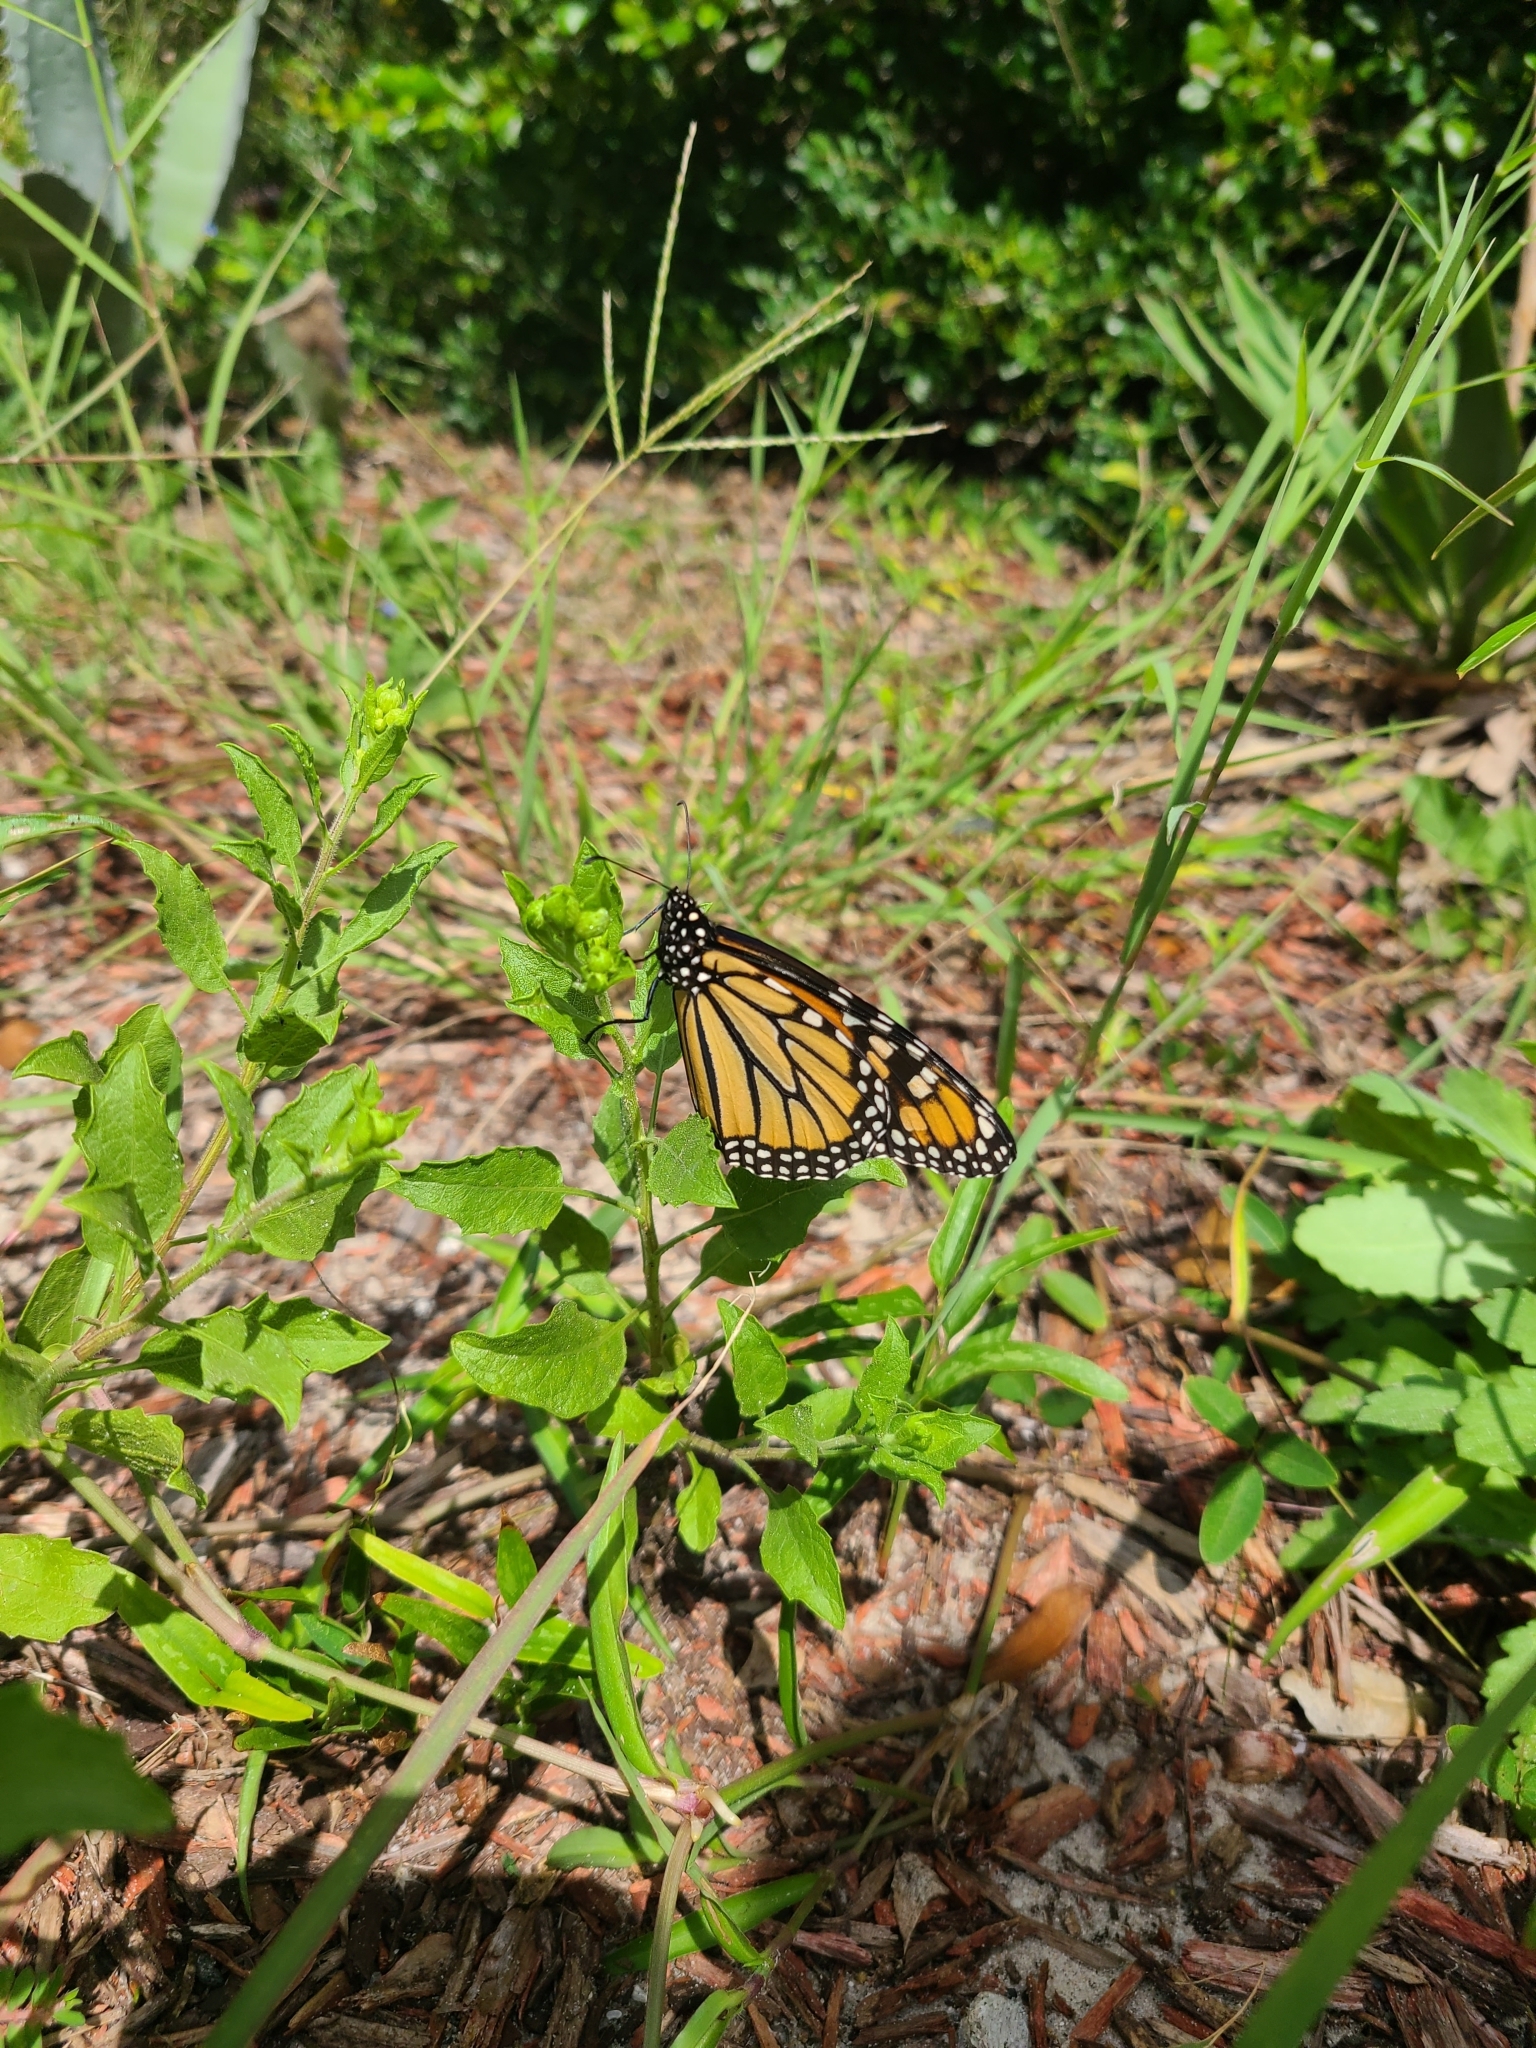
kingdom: Animalia
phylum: Arthropoda
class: Insecta
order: Lepidoptera
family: Nymphalidae
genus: Danaus
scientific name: Danaus plexippus
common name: Monarch
